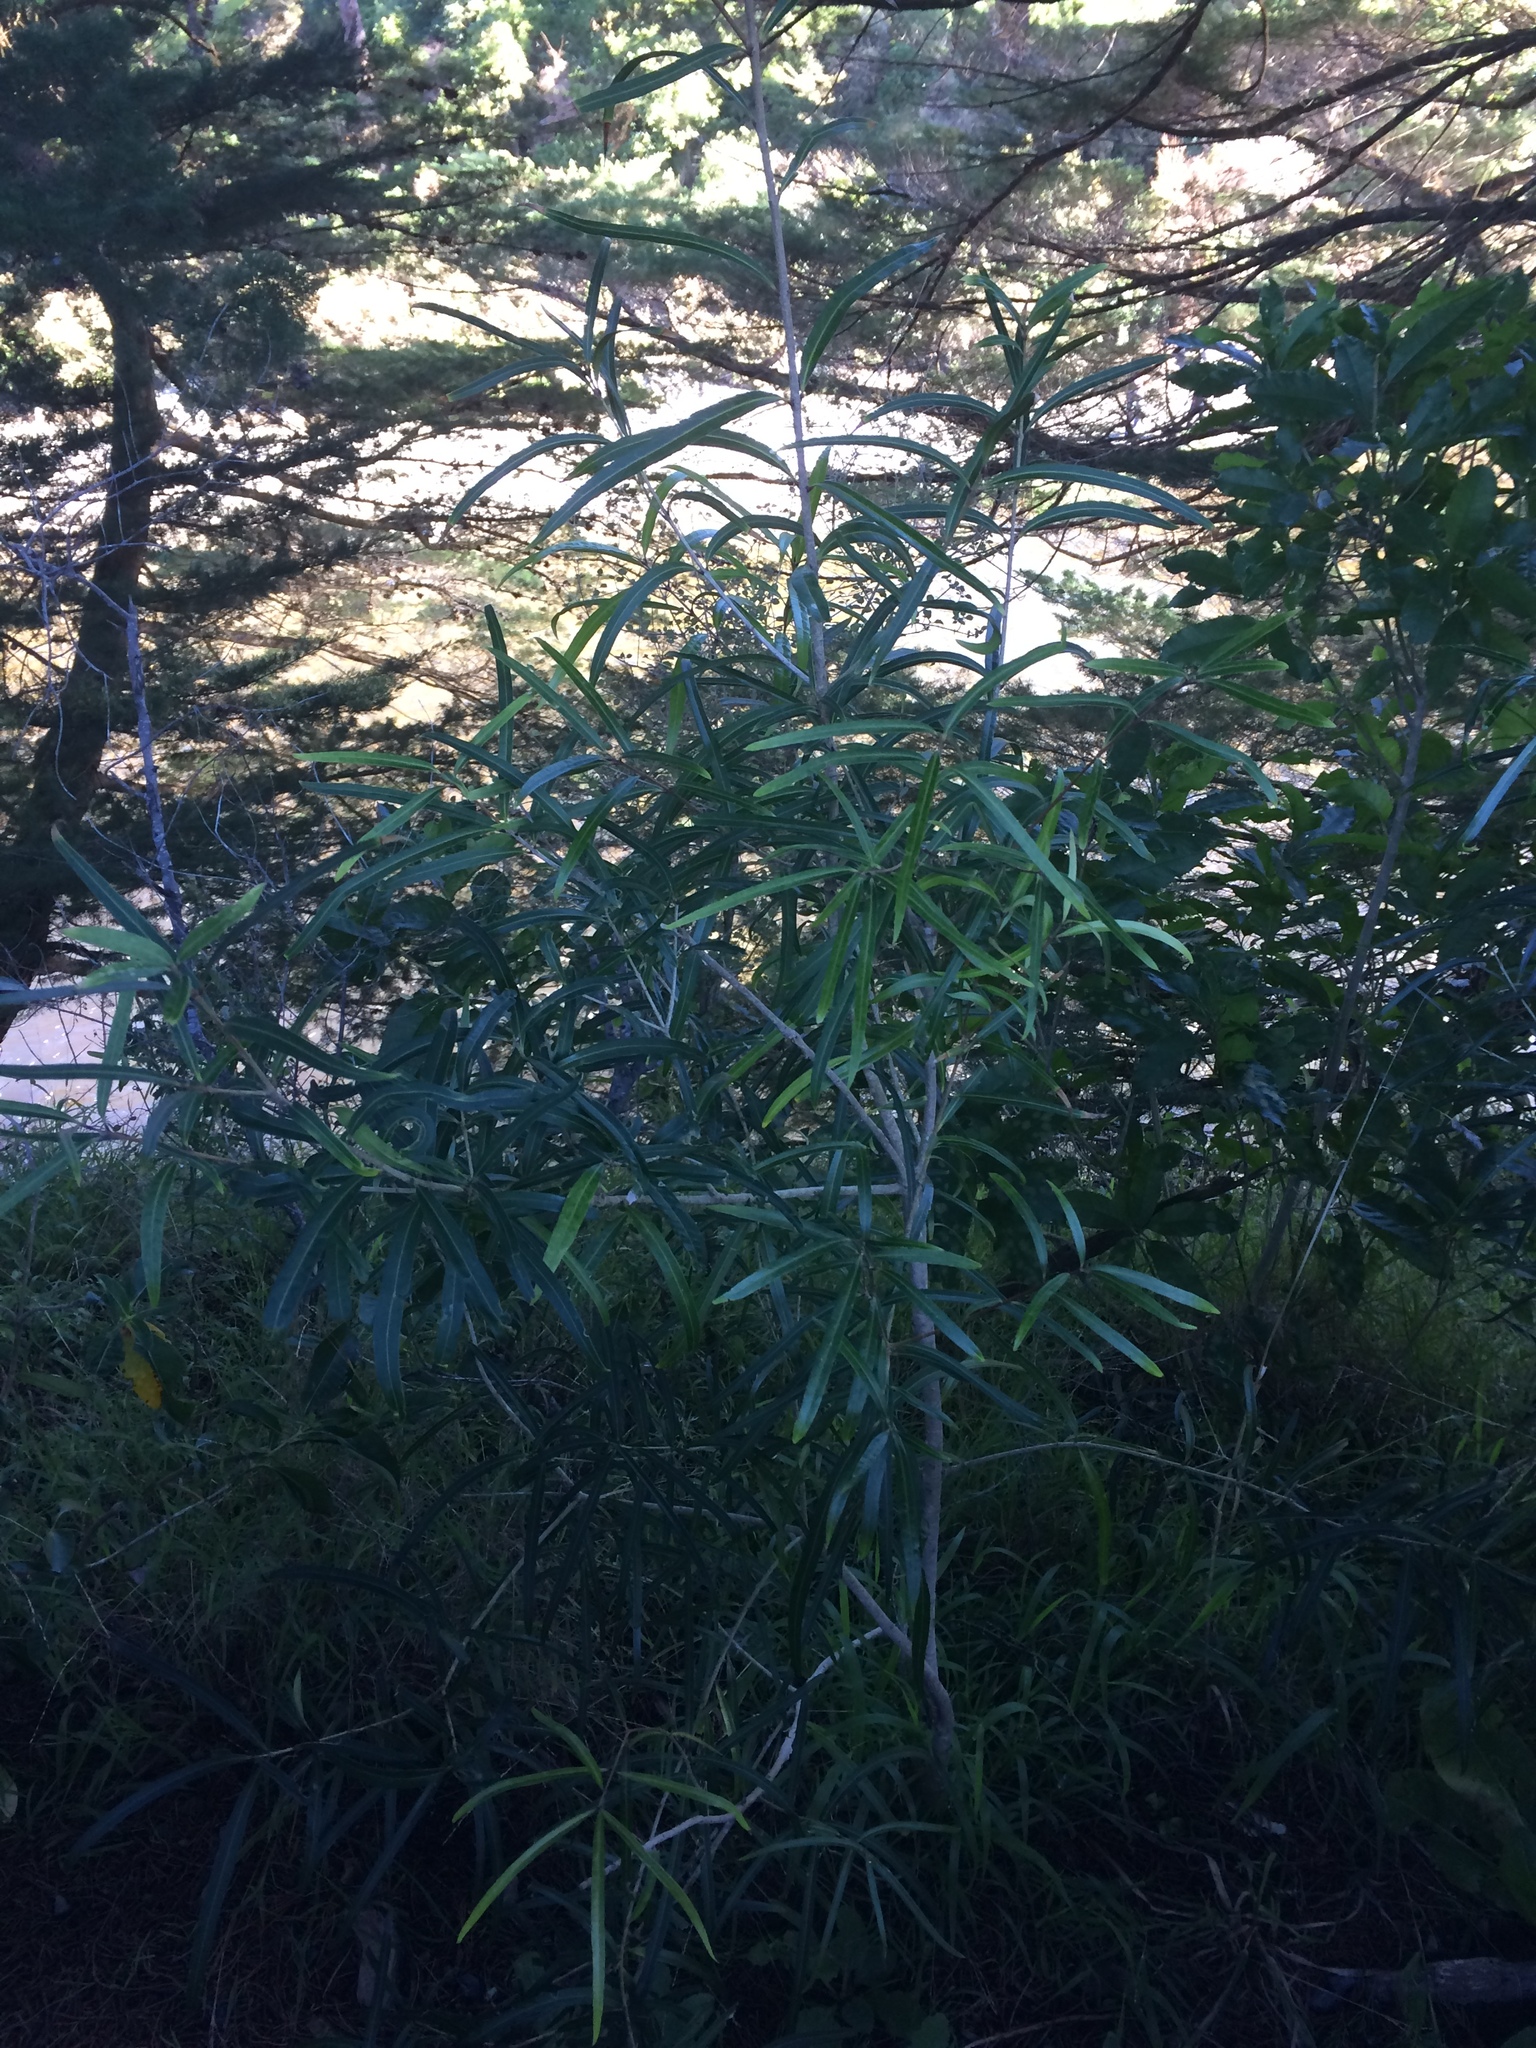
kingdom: Plantae
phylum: Tracheophyta
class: Magnoliopsida
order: Lamiales
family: Oleaceae
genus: Nestegis
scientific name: Nestegis lanceolata
